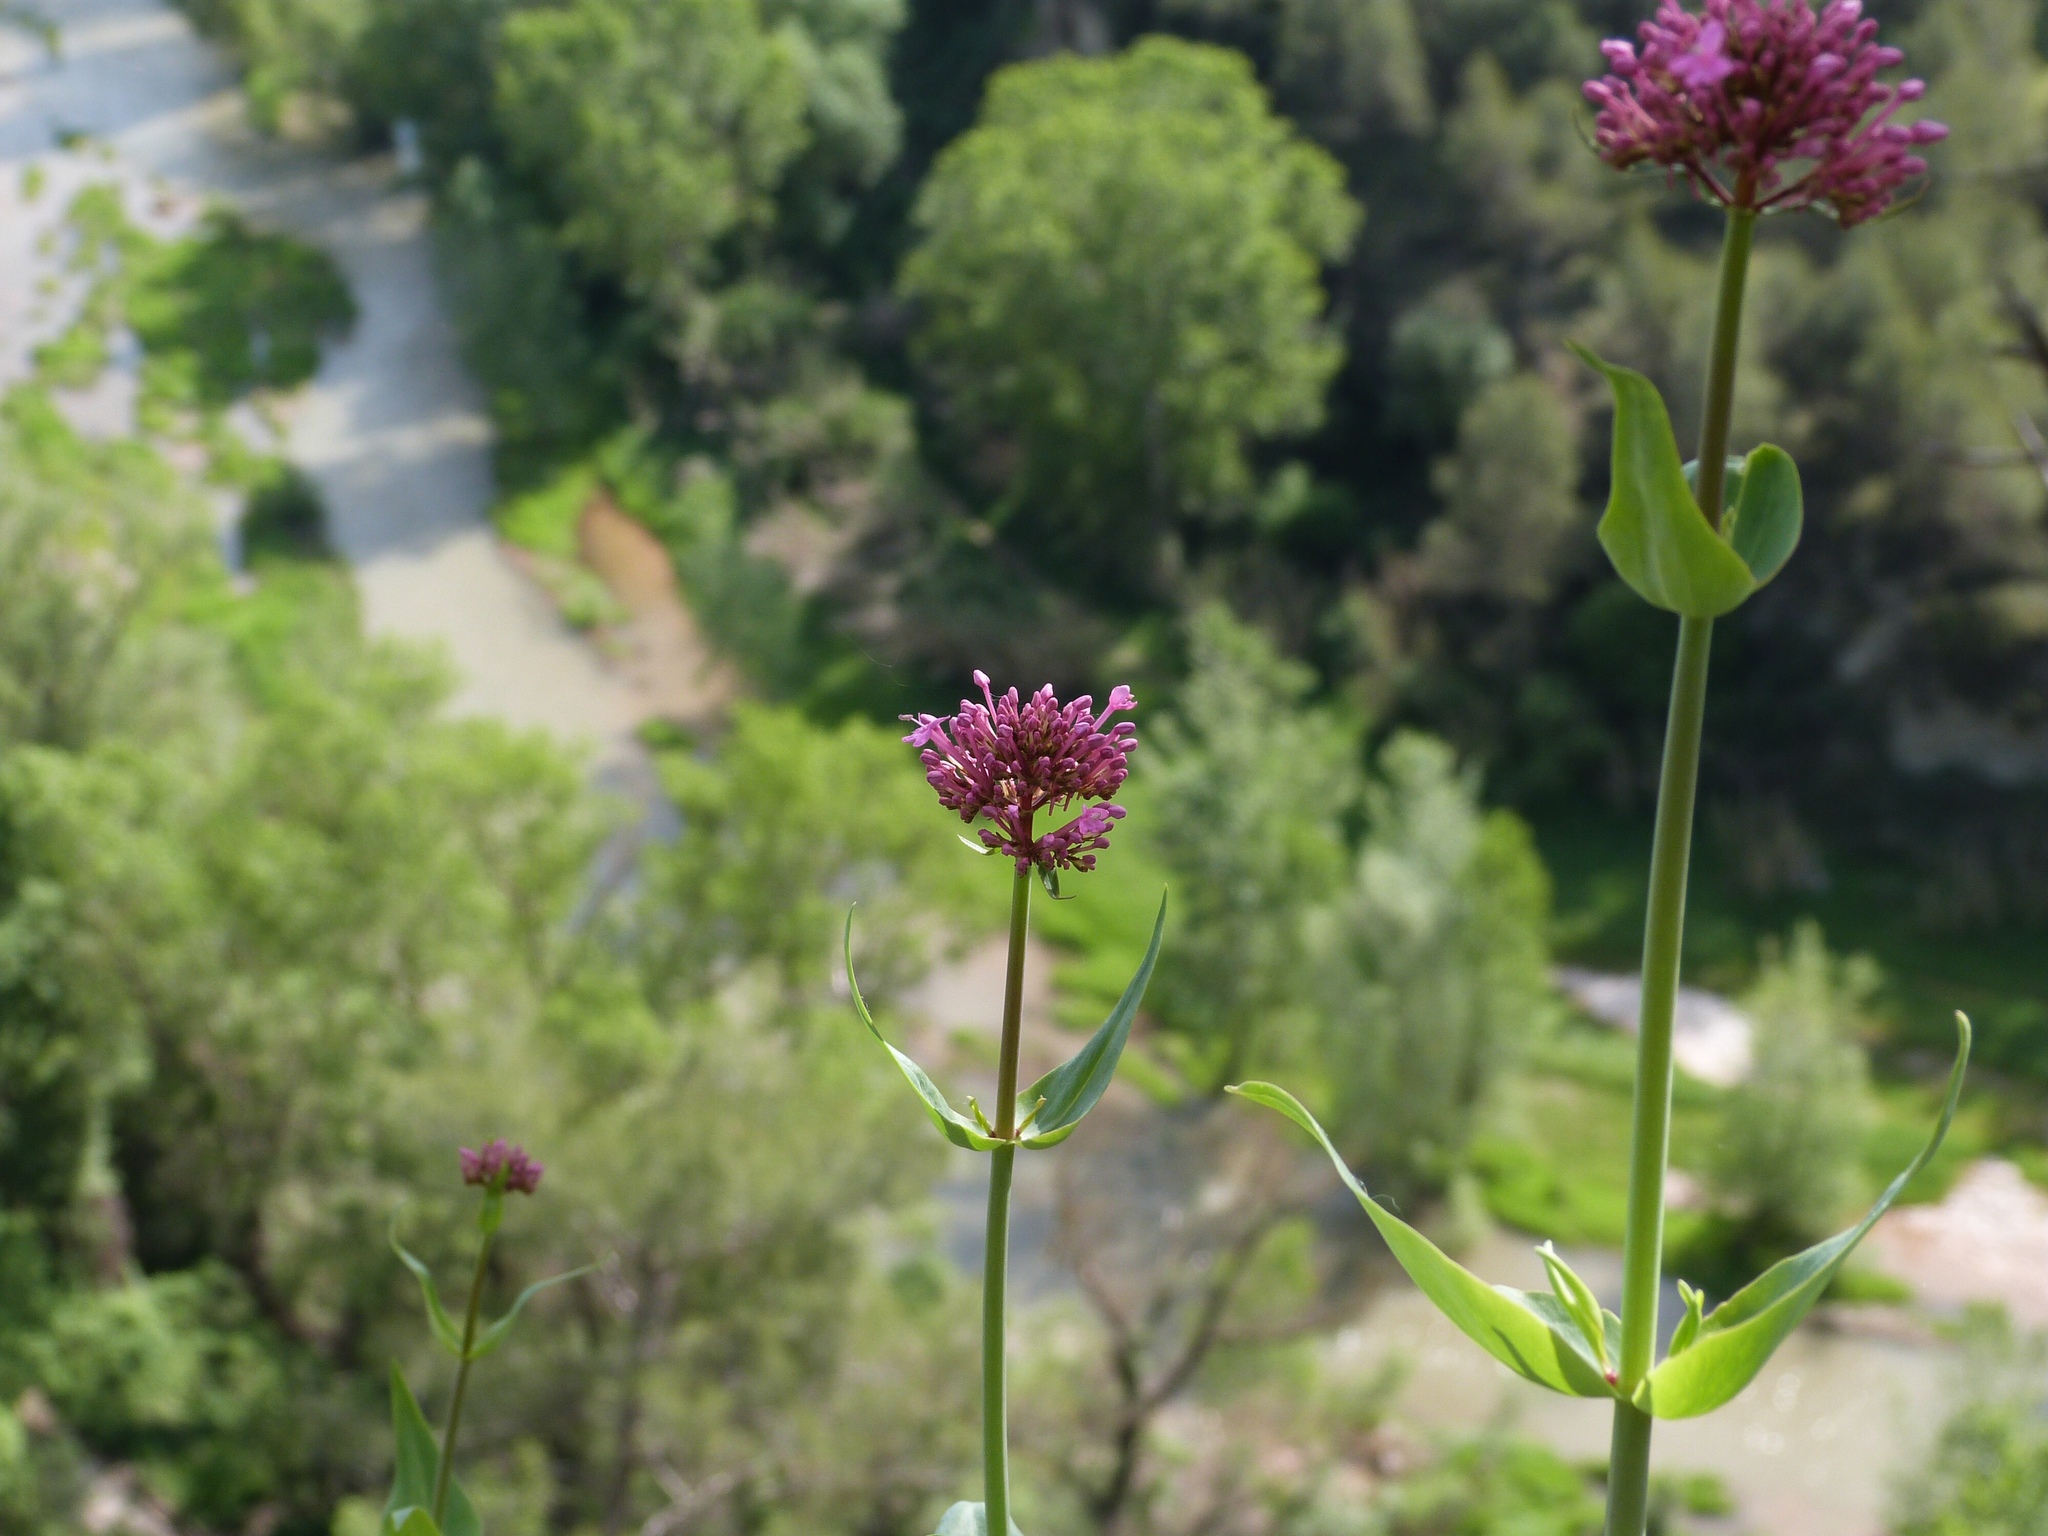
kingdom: Plantae
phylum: Tracheophyta
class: Magnoliopsida
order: Dipsacales
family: Caprifoliaceae
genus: Centranthus
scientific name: Centranthus ruber
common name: Red valerian
